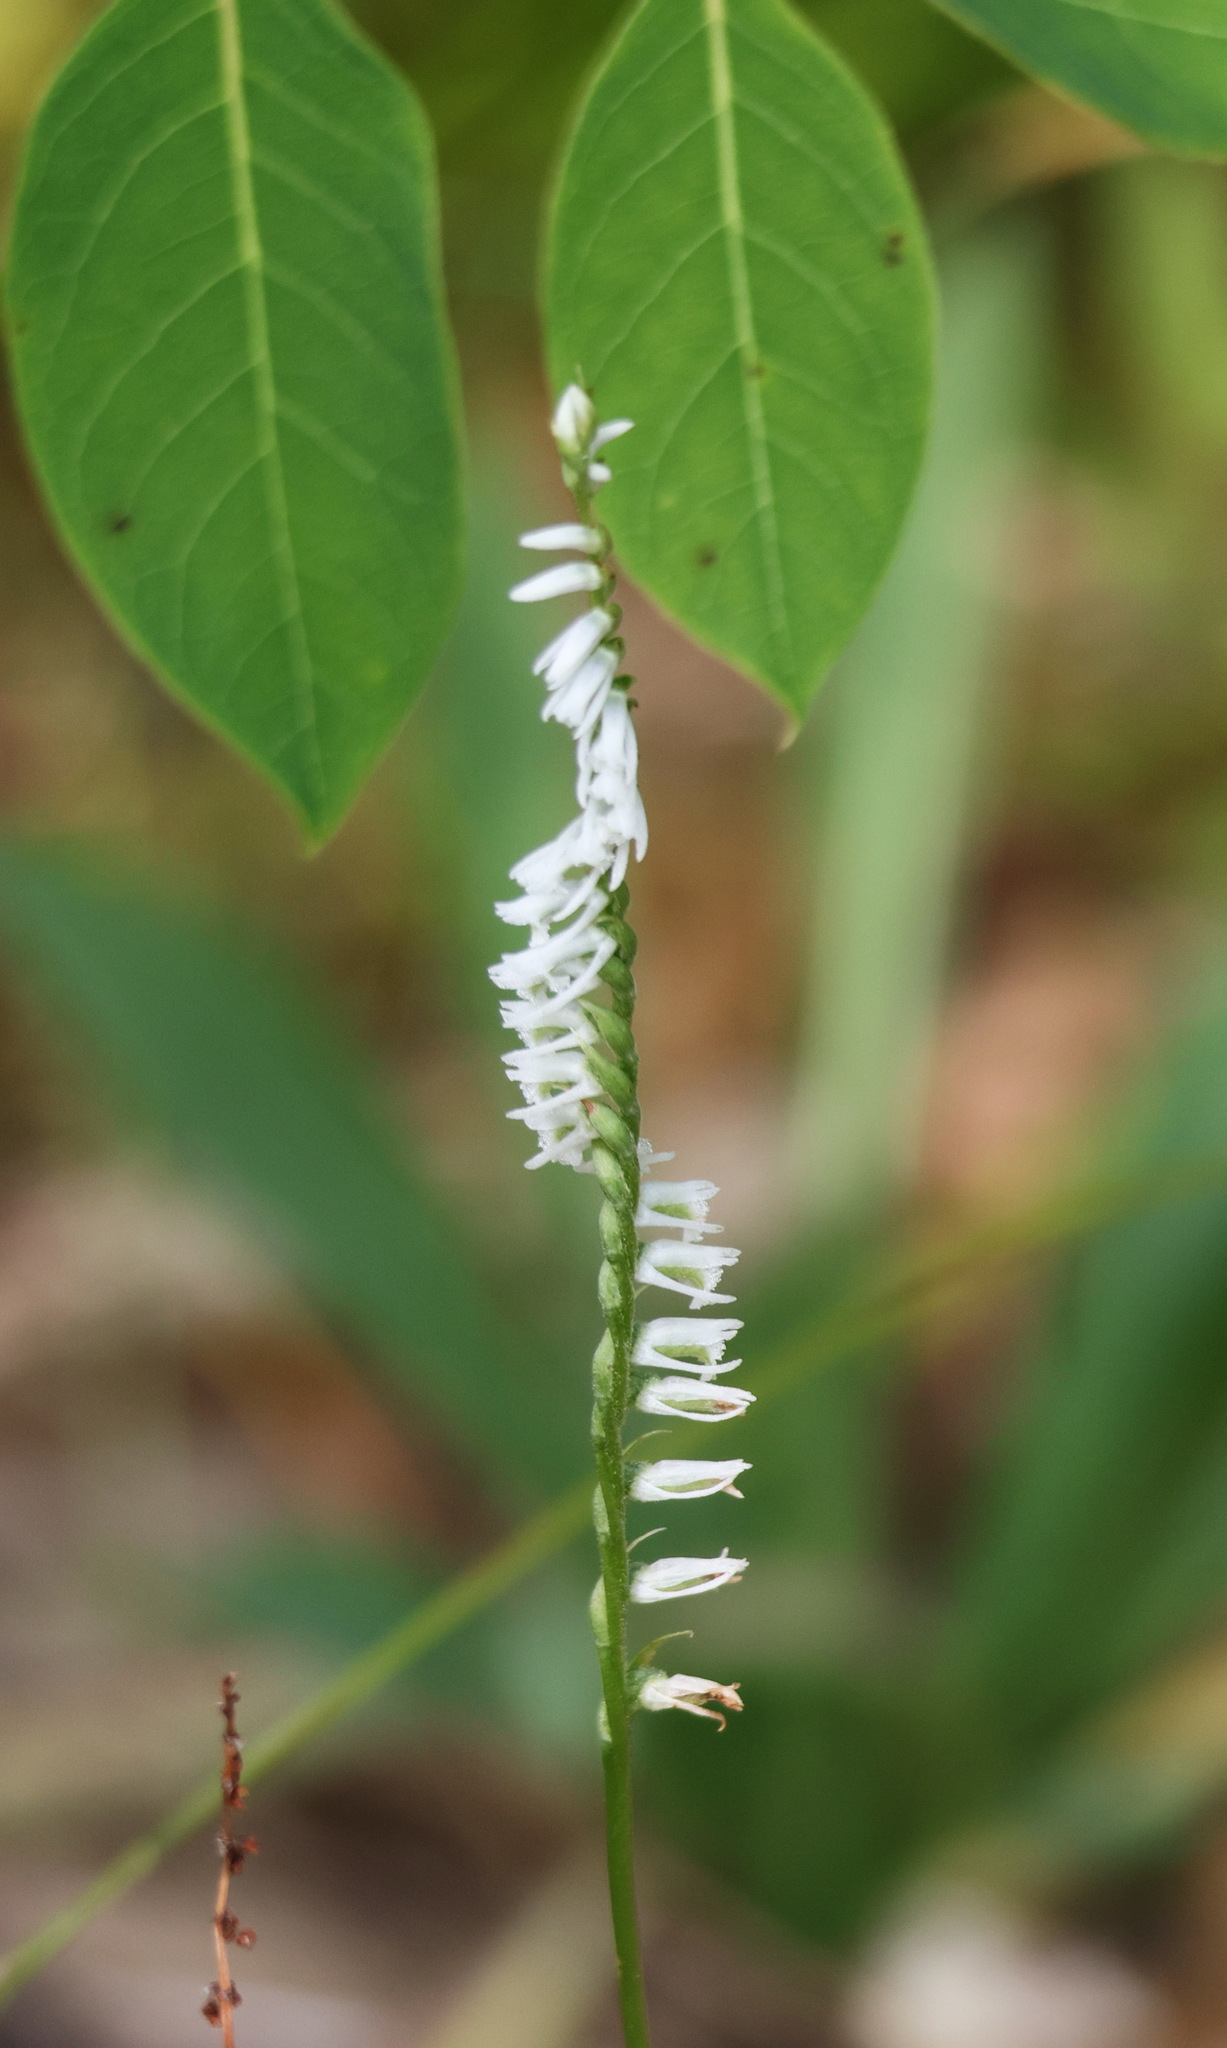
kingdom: Plantae
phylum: Tracheophyta
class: Liliopsida
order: Asparagales
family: Orchidaceae
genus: Spiranthes
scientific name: Spiranthes lacera
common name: Northern slender ladies'-tresses
